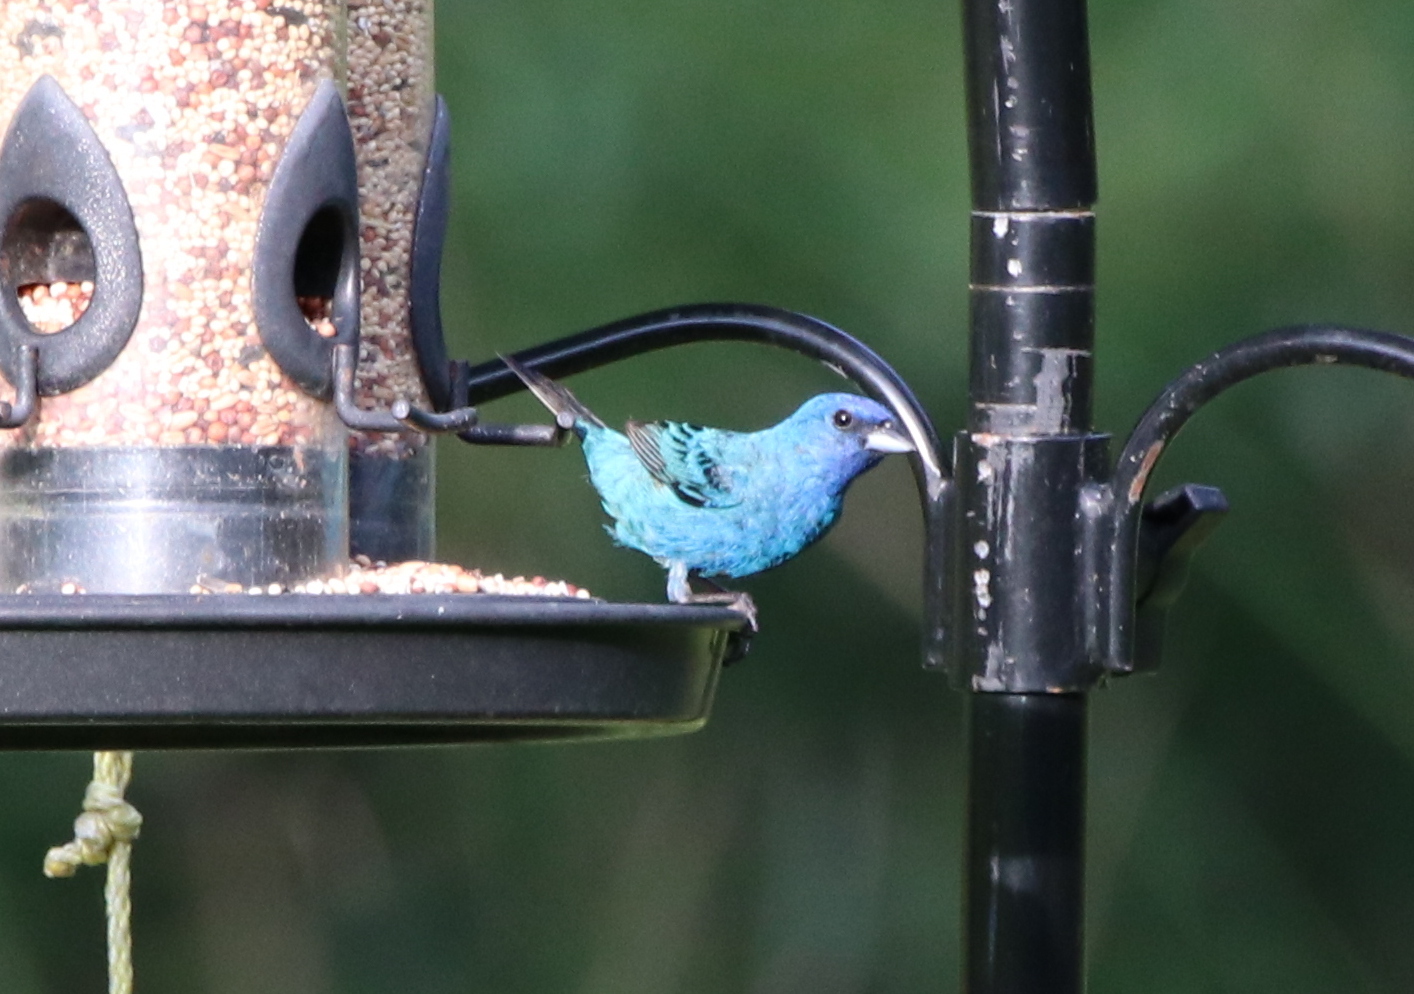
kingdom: Animalia
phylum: Chordata
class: Aves
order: Passeriformes
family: Cardinalidae
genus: Passerina
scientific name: Passerina cyanea
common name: Indigo bunting
